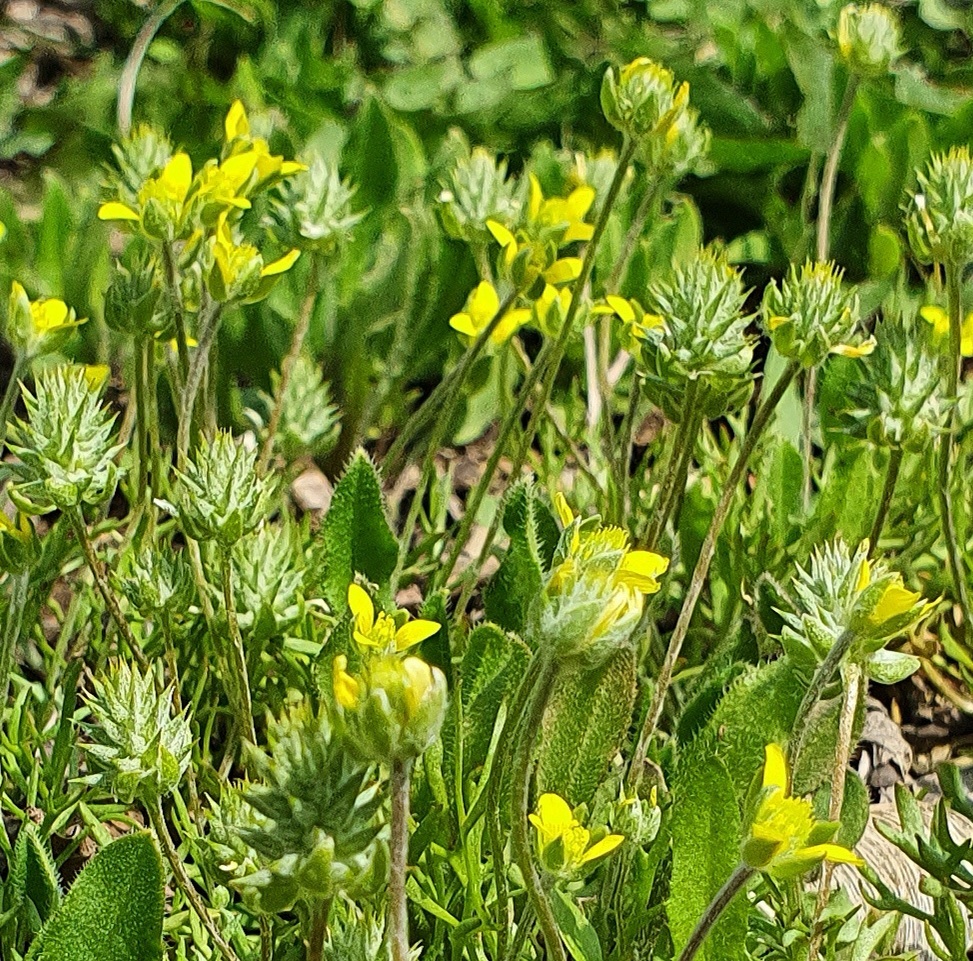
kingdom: Plantae
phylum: Tracheophyta
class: Magnoliopsida
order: Ranunculales
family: Ranunculaceae
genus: Ceratocephala
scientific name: Ceratocephala orthoceras
